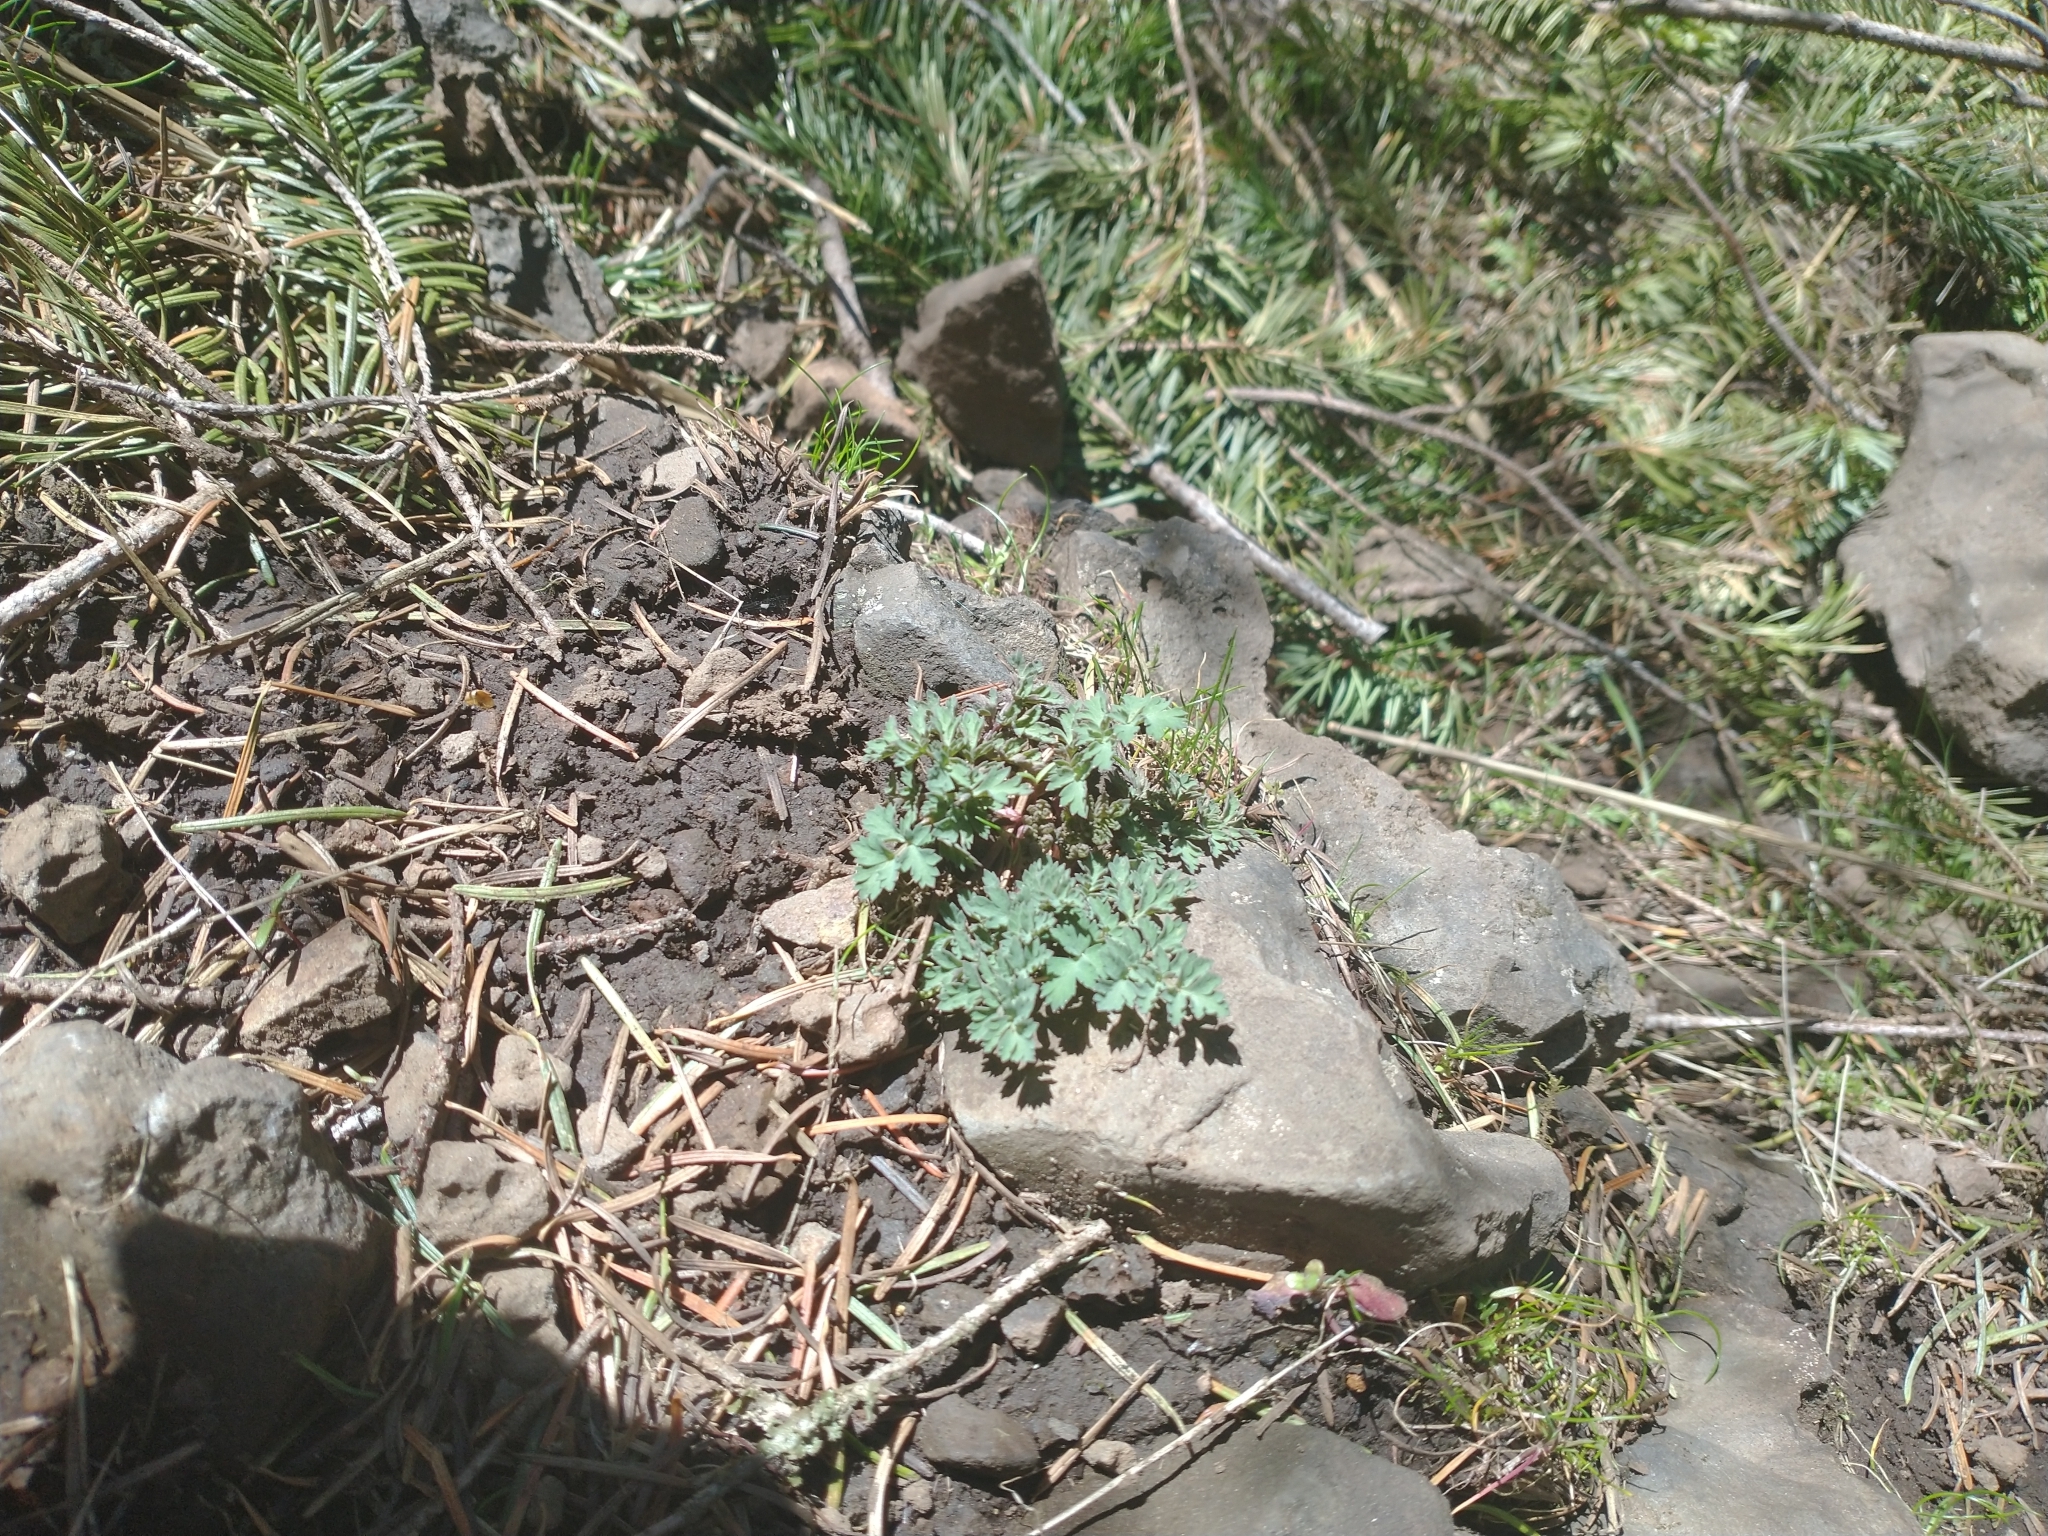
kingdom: Plantae
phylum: Tracheophyta
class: Magnoliopsida
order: Apiales
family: Apiaceae
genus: Lomatium
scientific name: Lomatium martindalei
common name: Cascade desert-parsley
